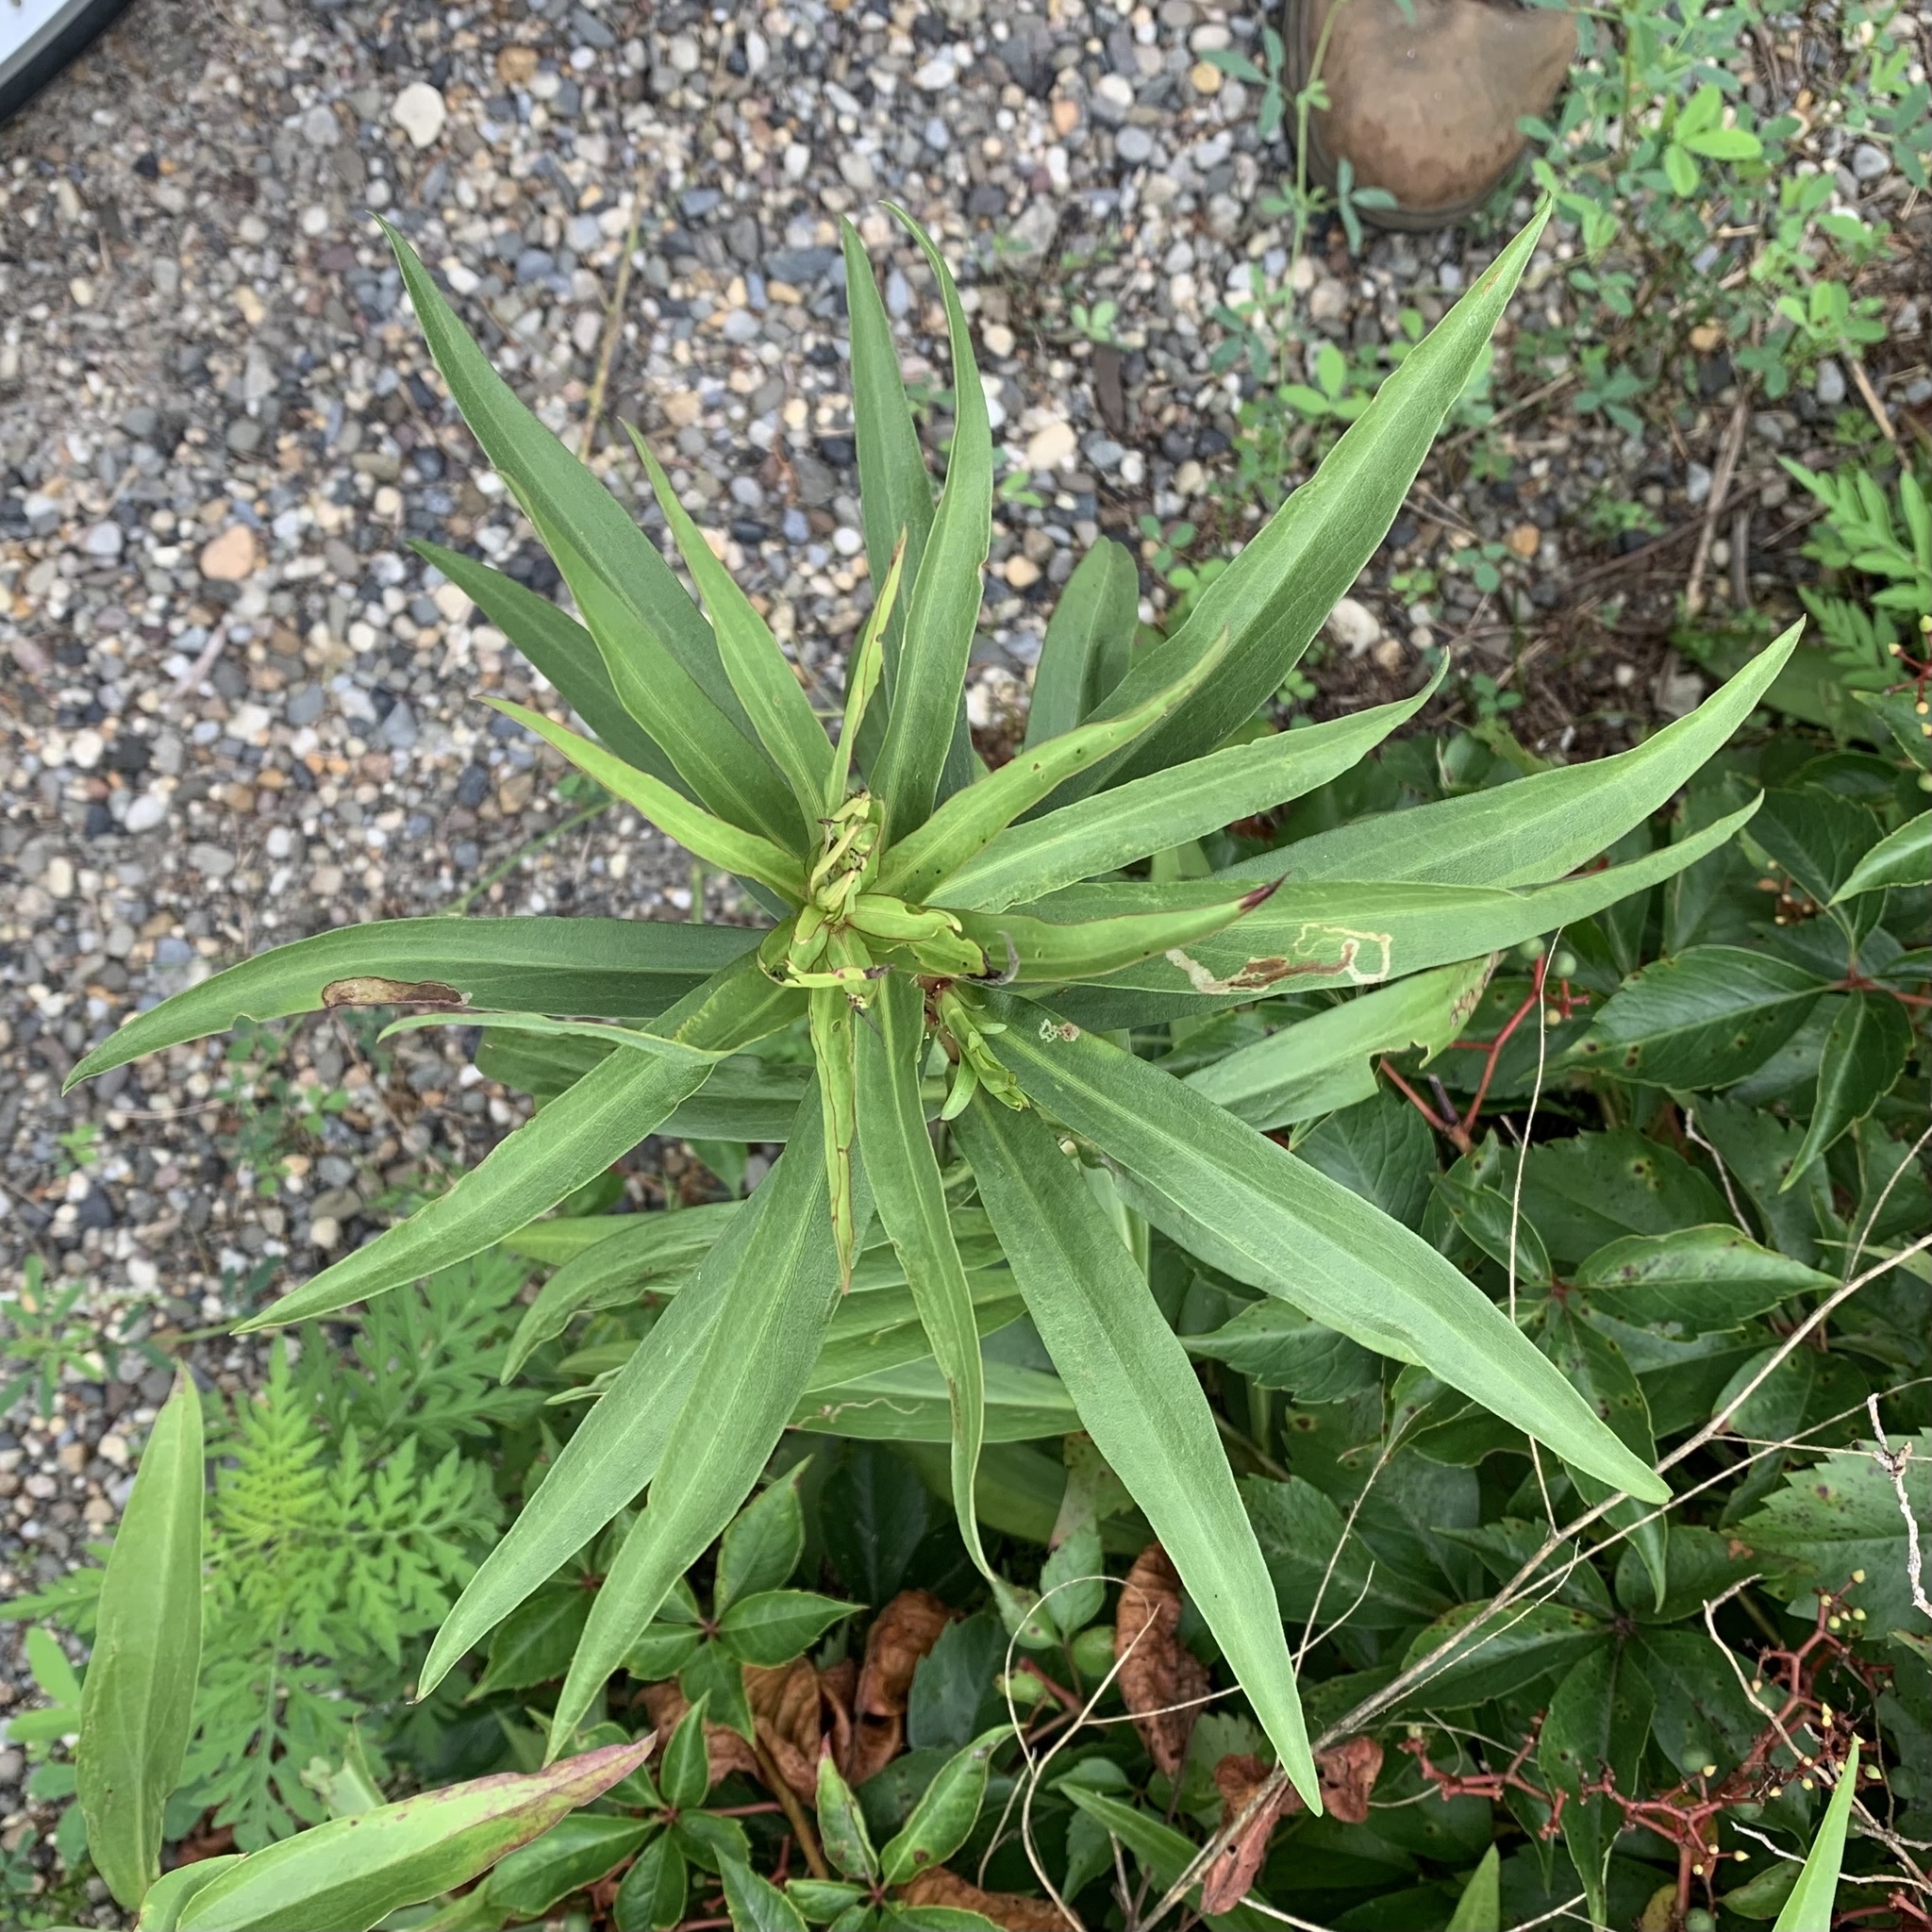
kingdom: Plantae
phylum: Tracheophyta
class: Magnoliopsida
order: Asterales
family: Asteraceae
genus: Solidago
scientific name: Solidago sempervirens
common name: Salt-marsh goldenrod
